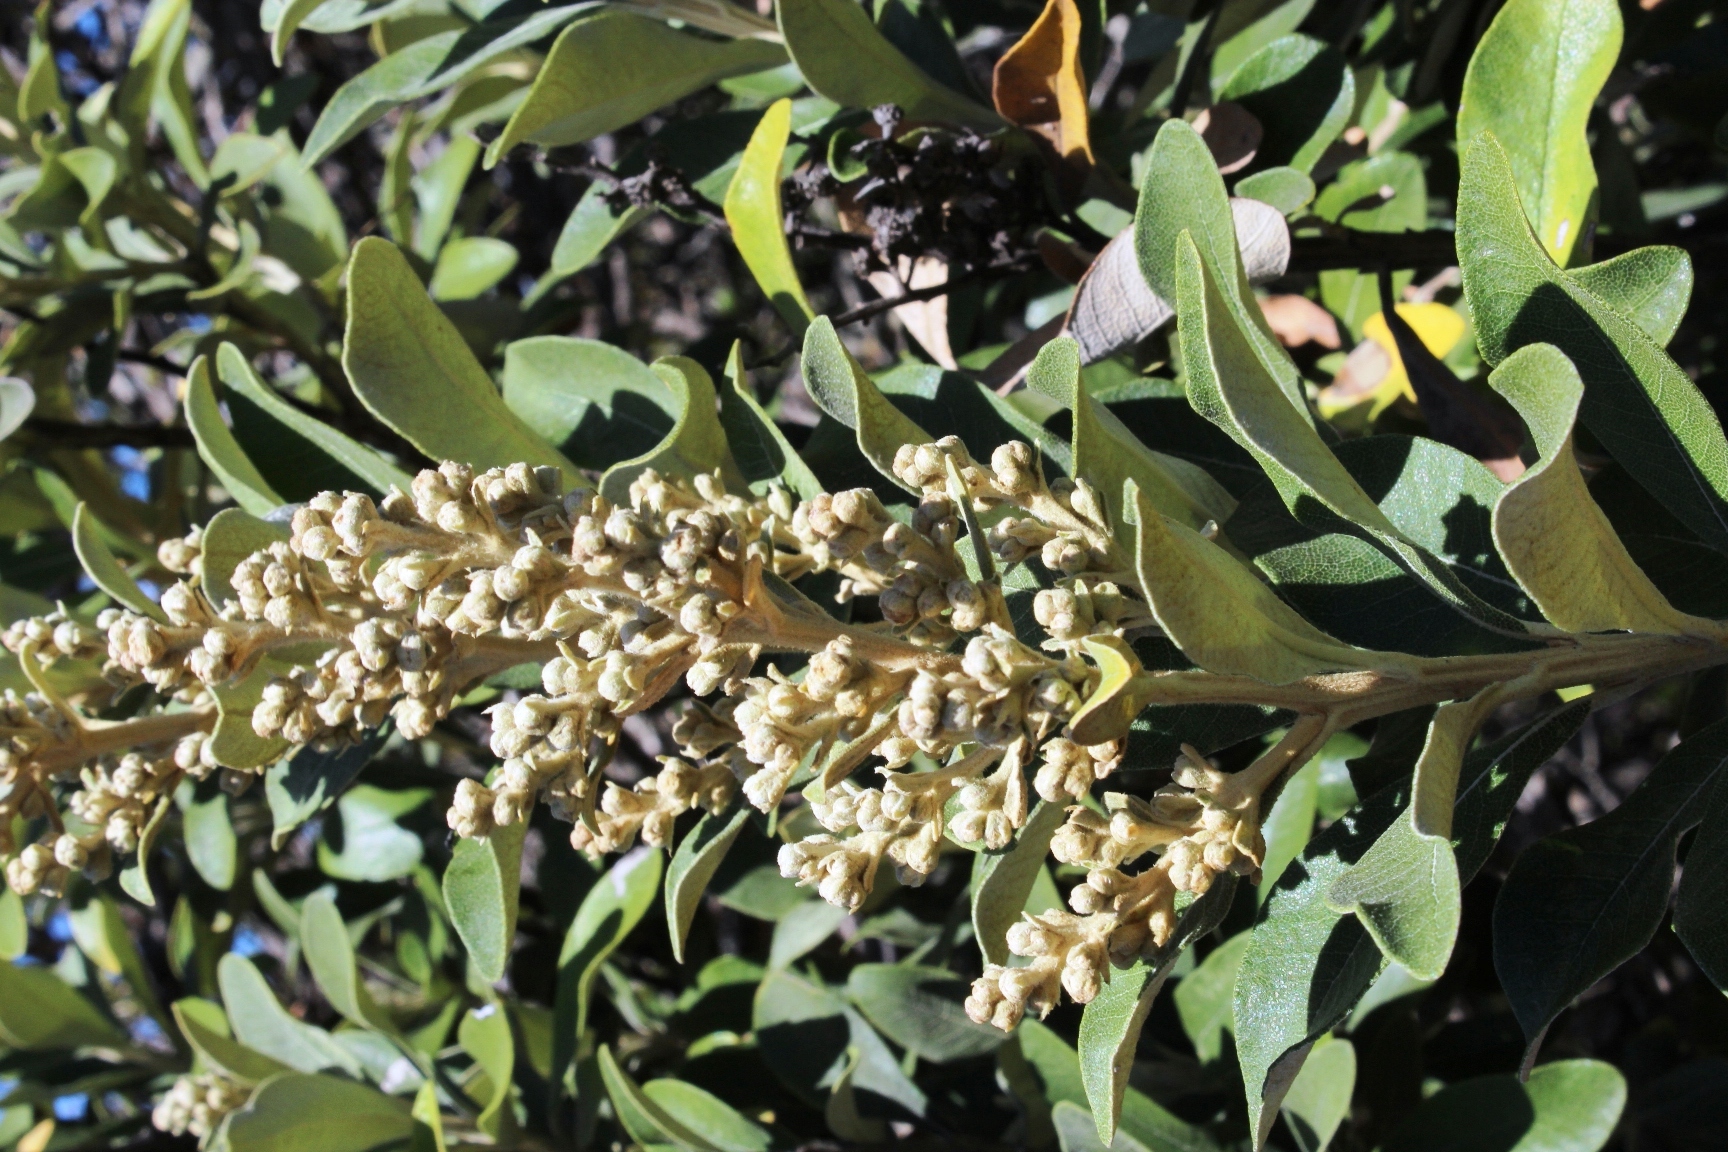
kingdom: Plantae
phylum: Tracheophyta
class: Magnoliopsida
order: Asterales
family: Asteraceae
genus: Tarchonanthus
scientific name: Tarchonanthus littoralis
